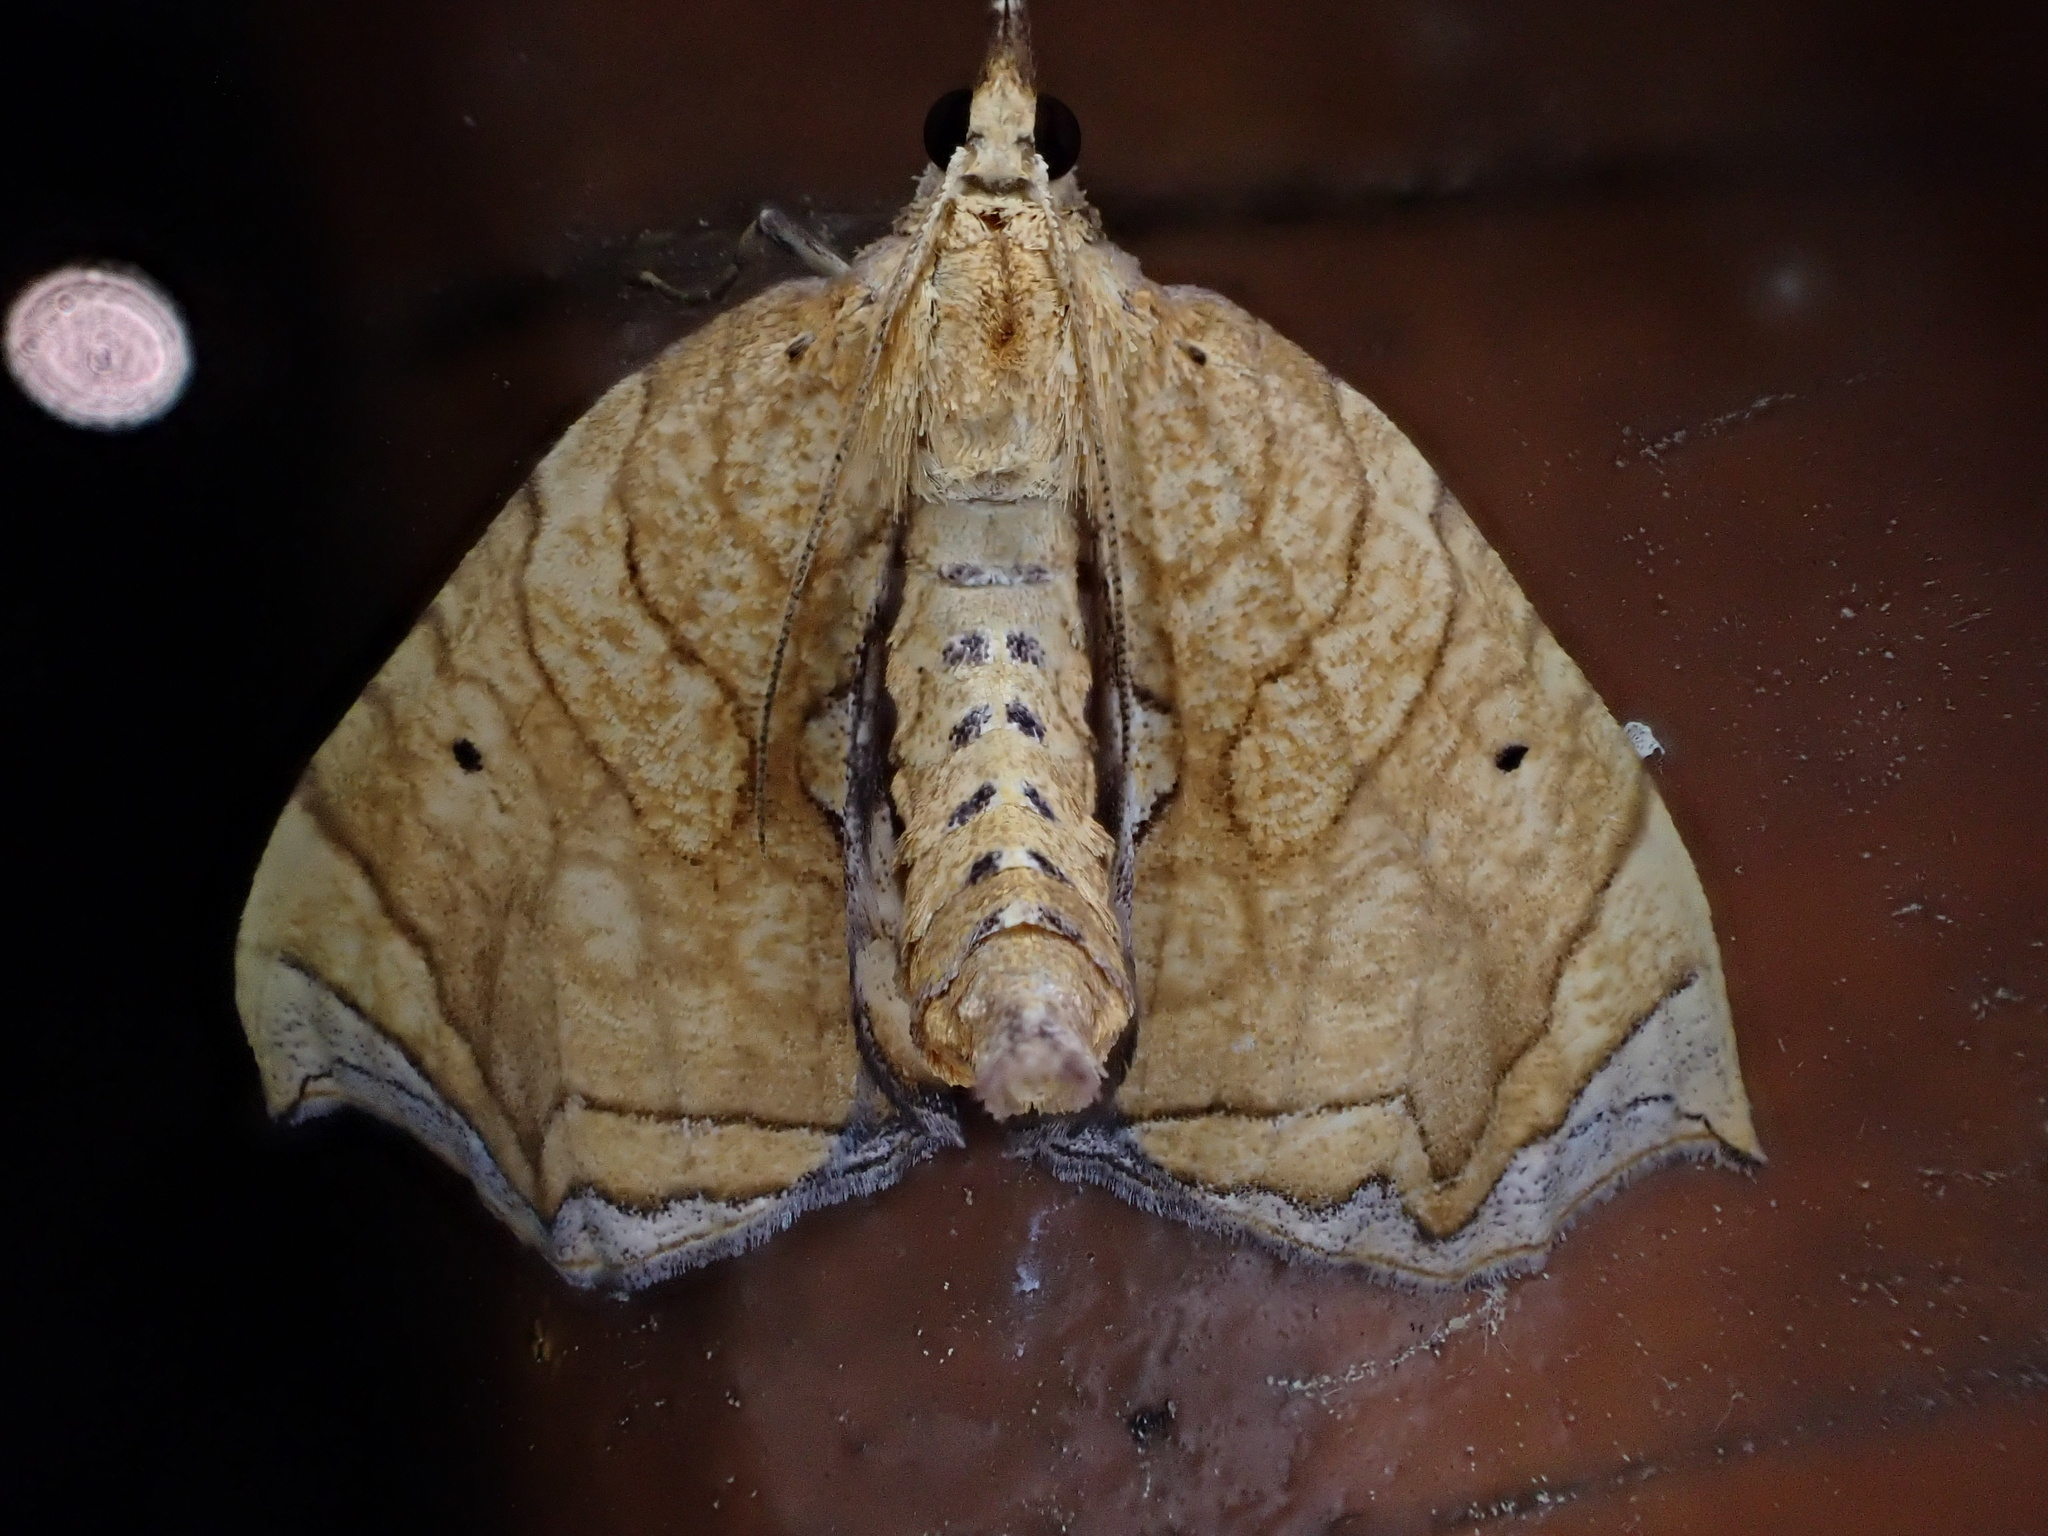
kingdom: Animalia
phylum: Arthropoda
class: Insecta
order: Lepidoptera
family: Geometridae
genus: Eulithis
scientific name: Eulithis gracilineata
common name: Greater grapevine looper moth
